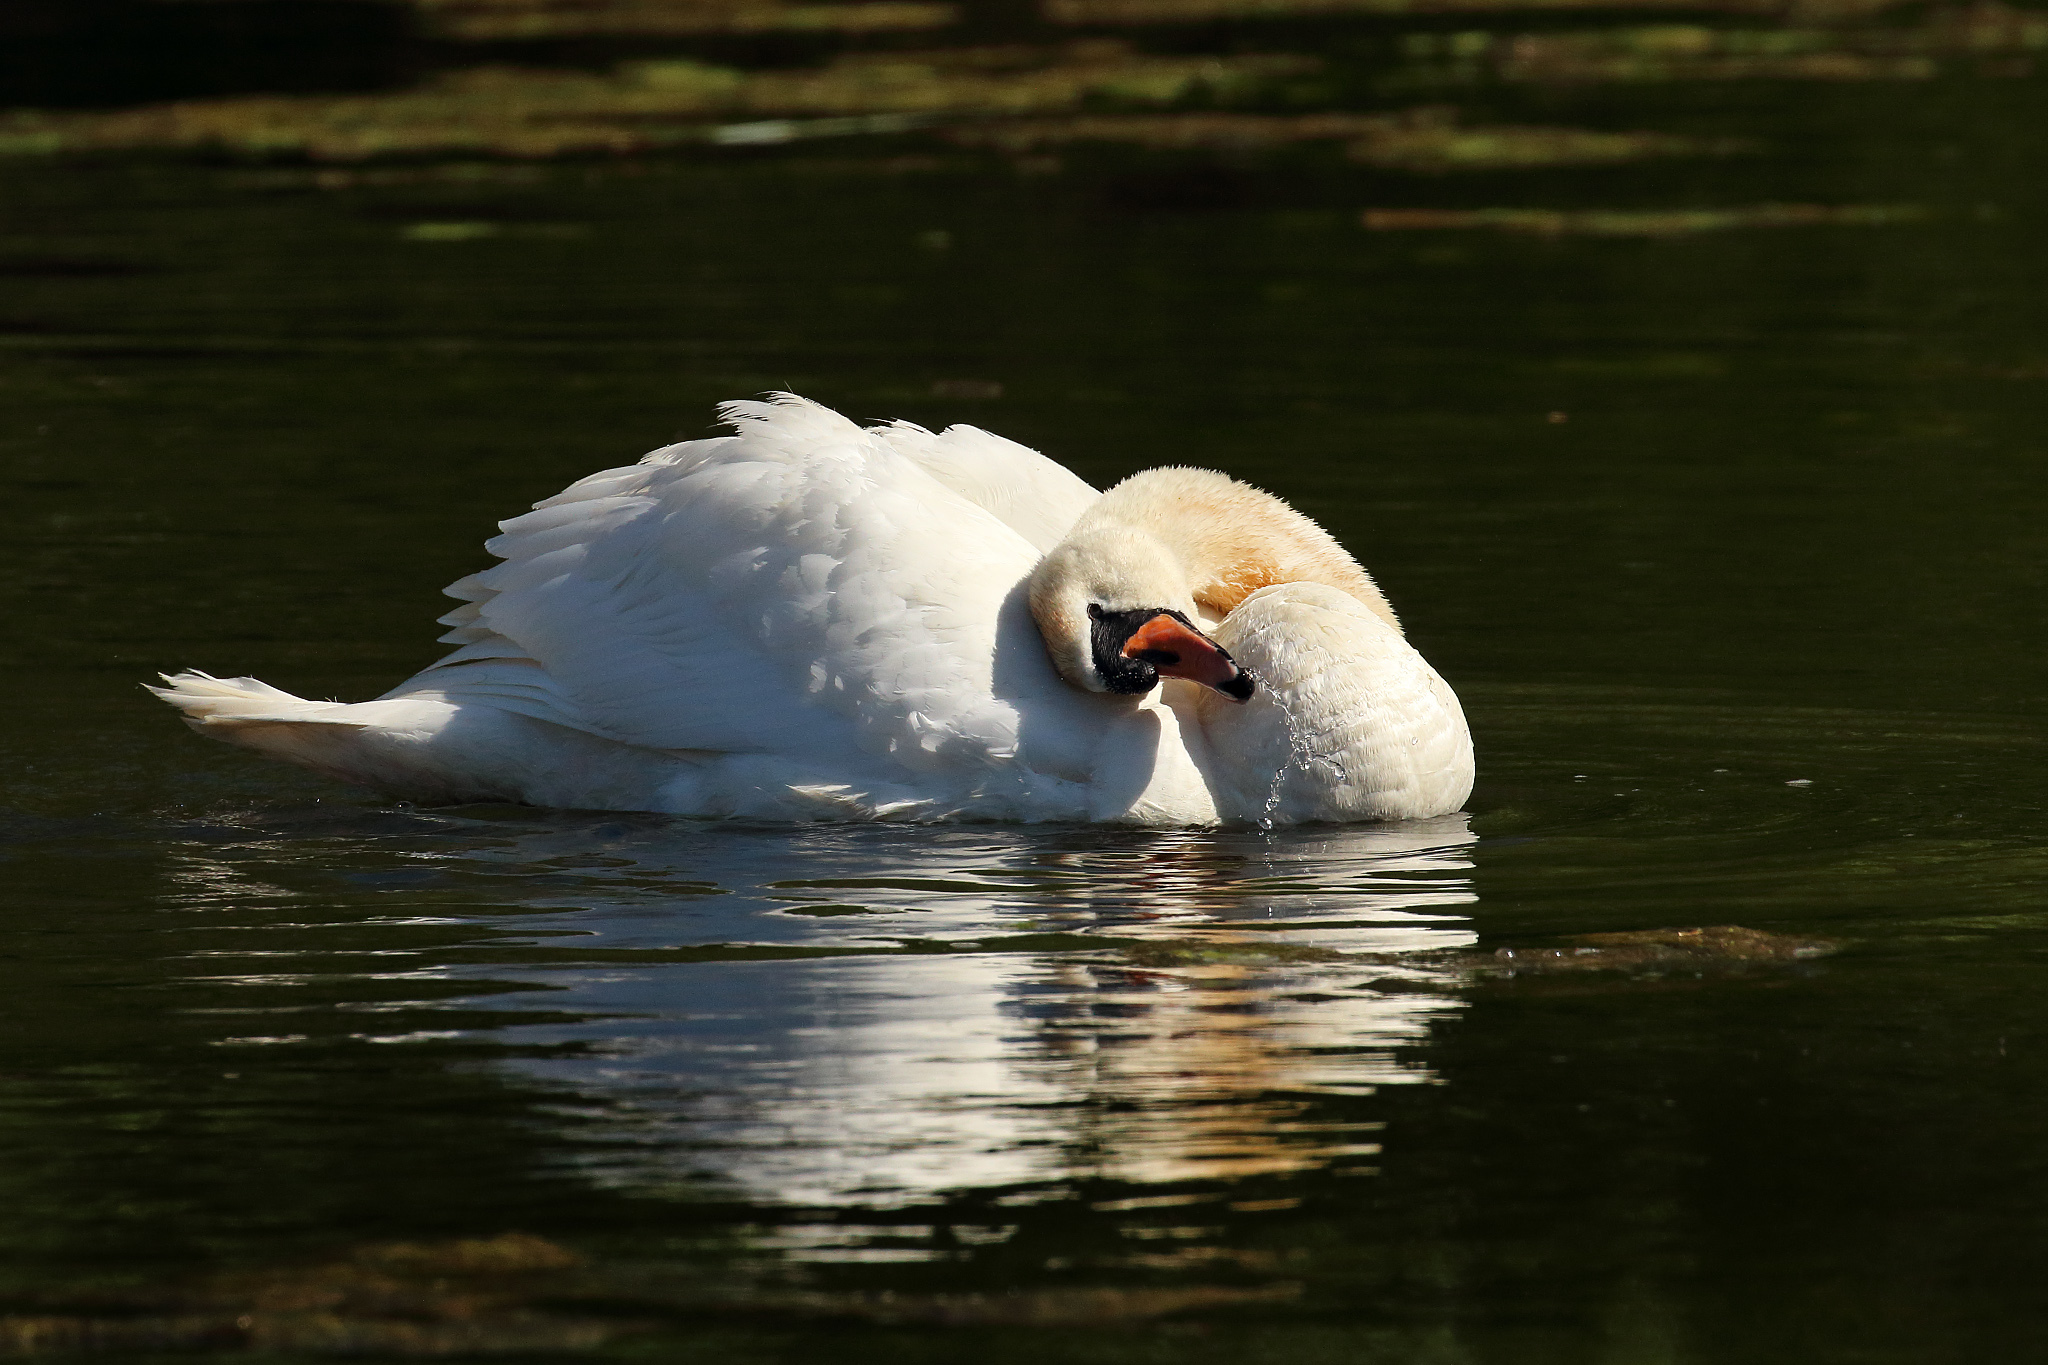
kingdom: Animalia
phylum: Chordata
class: Aves
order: Anseriformes
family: Anatidae
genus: Cygnus
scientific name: Cygnus olor
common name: Mute swan
